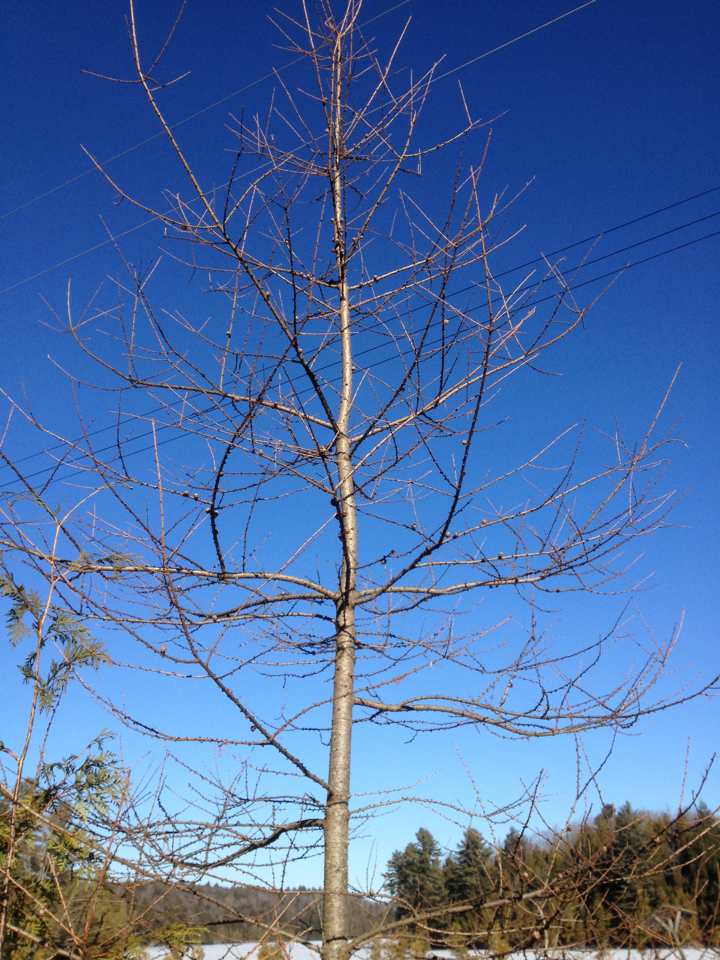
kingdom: Plantae
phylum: Tracheophyta
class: Pinopsida
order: Pinales
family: Pinaceae
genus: Larix
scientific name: Larix laricina
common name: American larch
